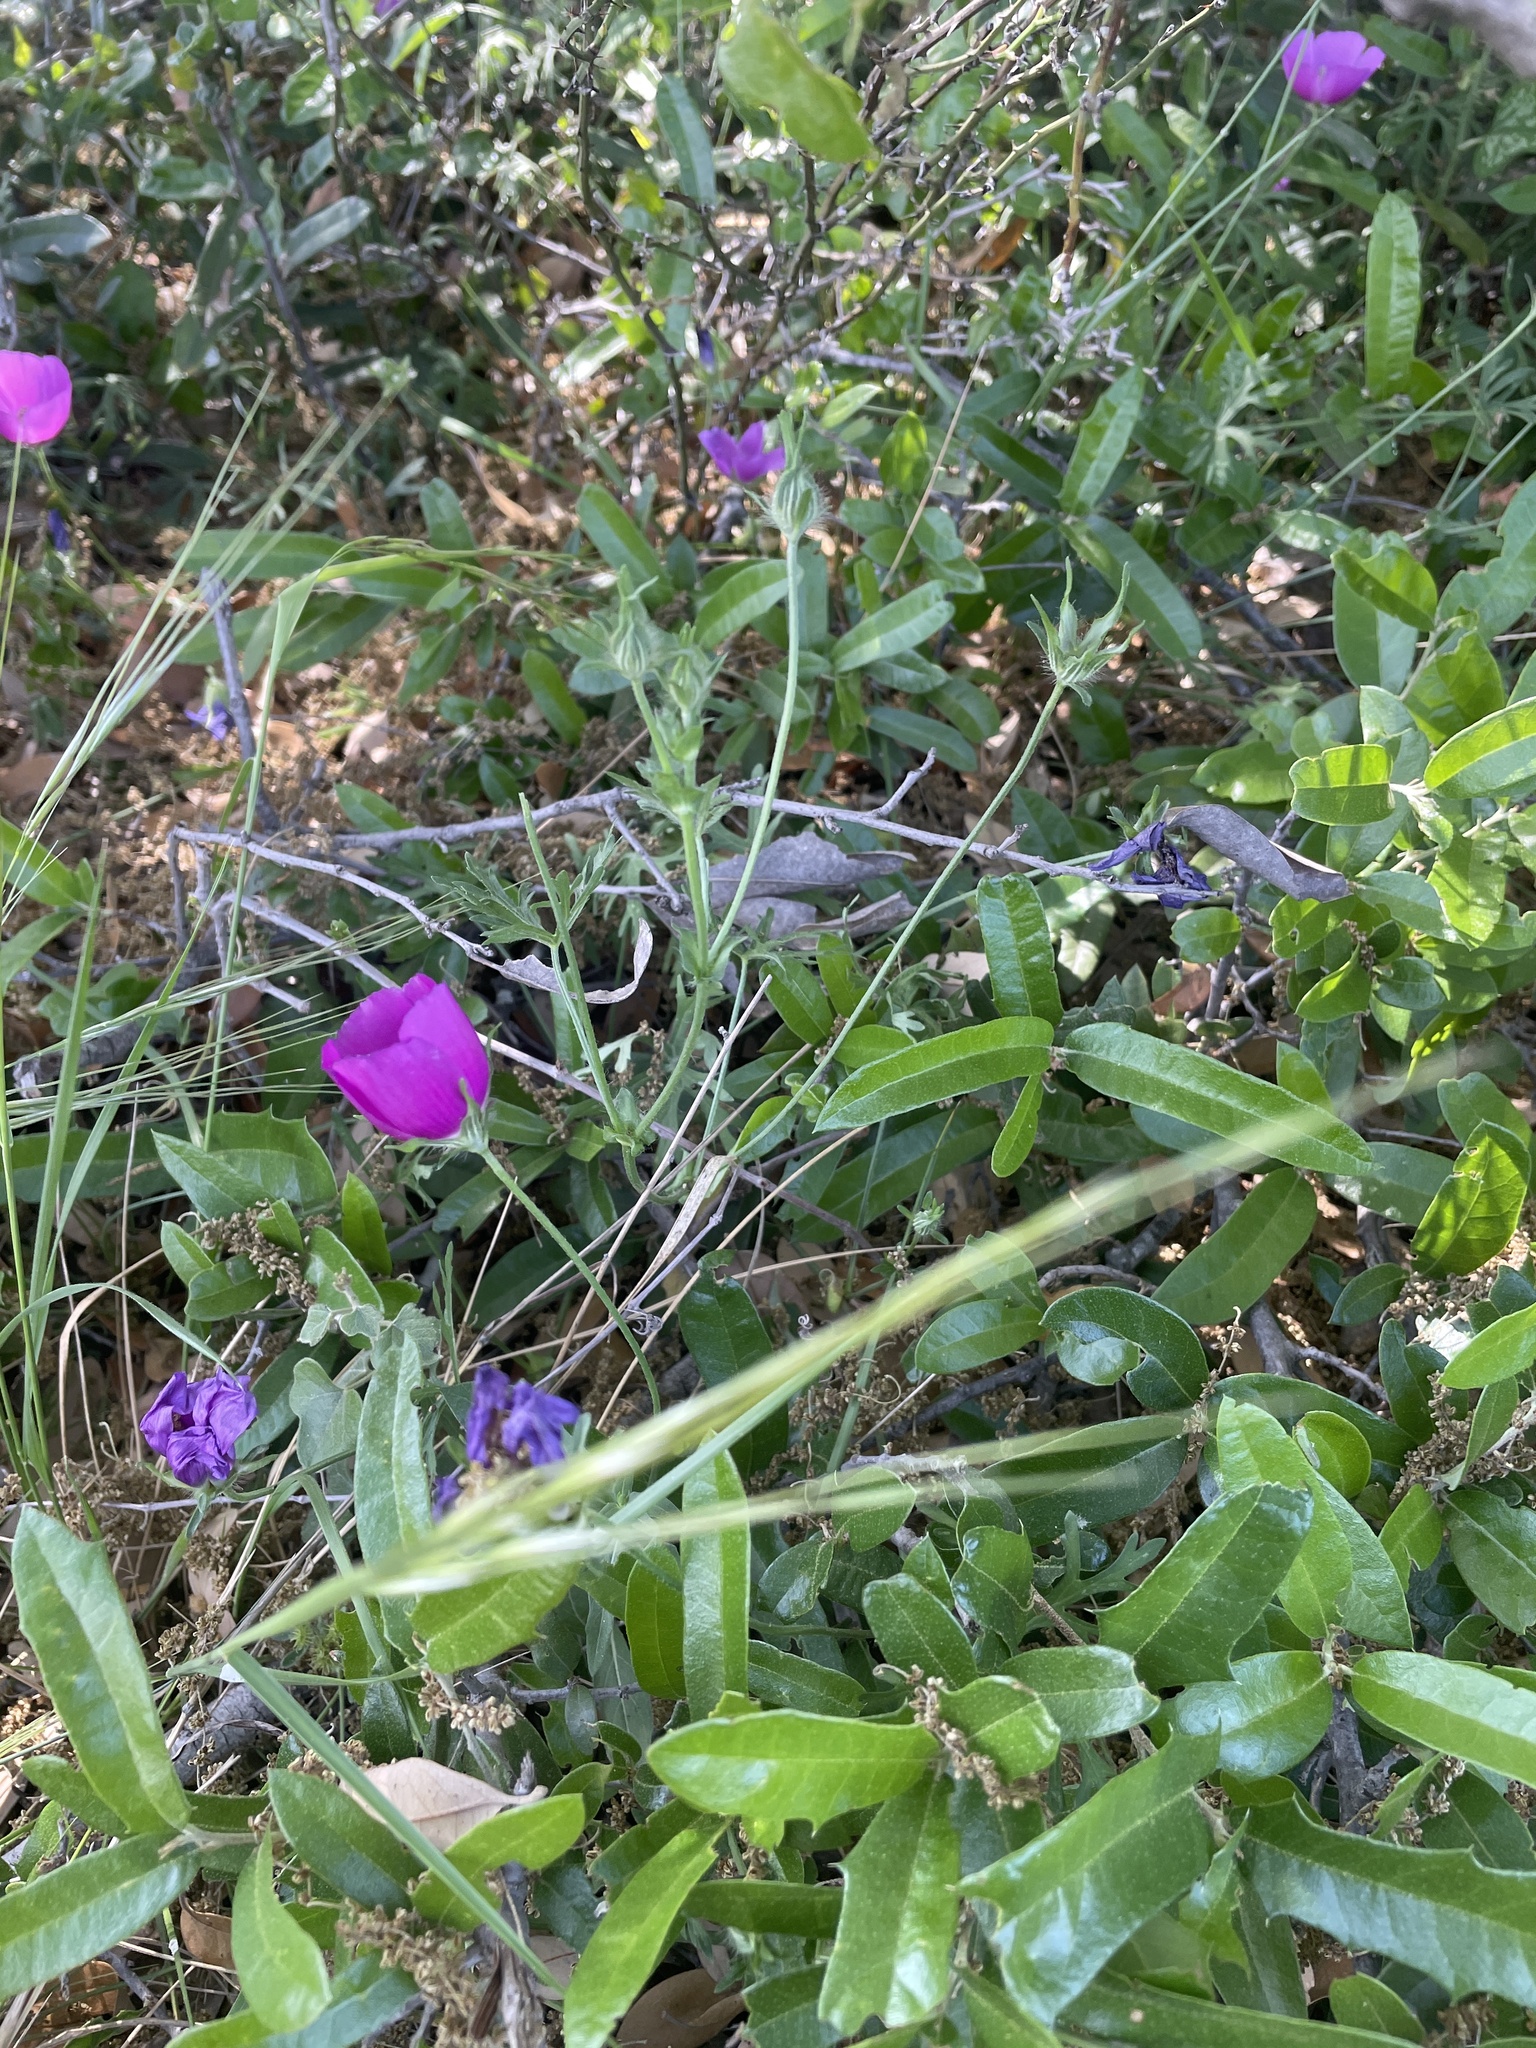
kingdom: Plantae
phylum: Tracheophyta
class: Magnoliopsida
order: Malvales
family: Malvaceae
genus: Callirhoe
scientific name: Callirhoe involucrata
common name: Purple poppy-mallow
